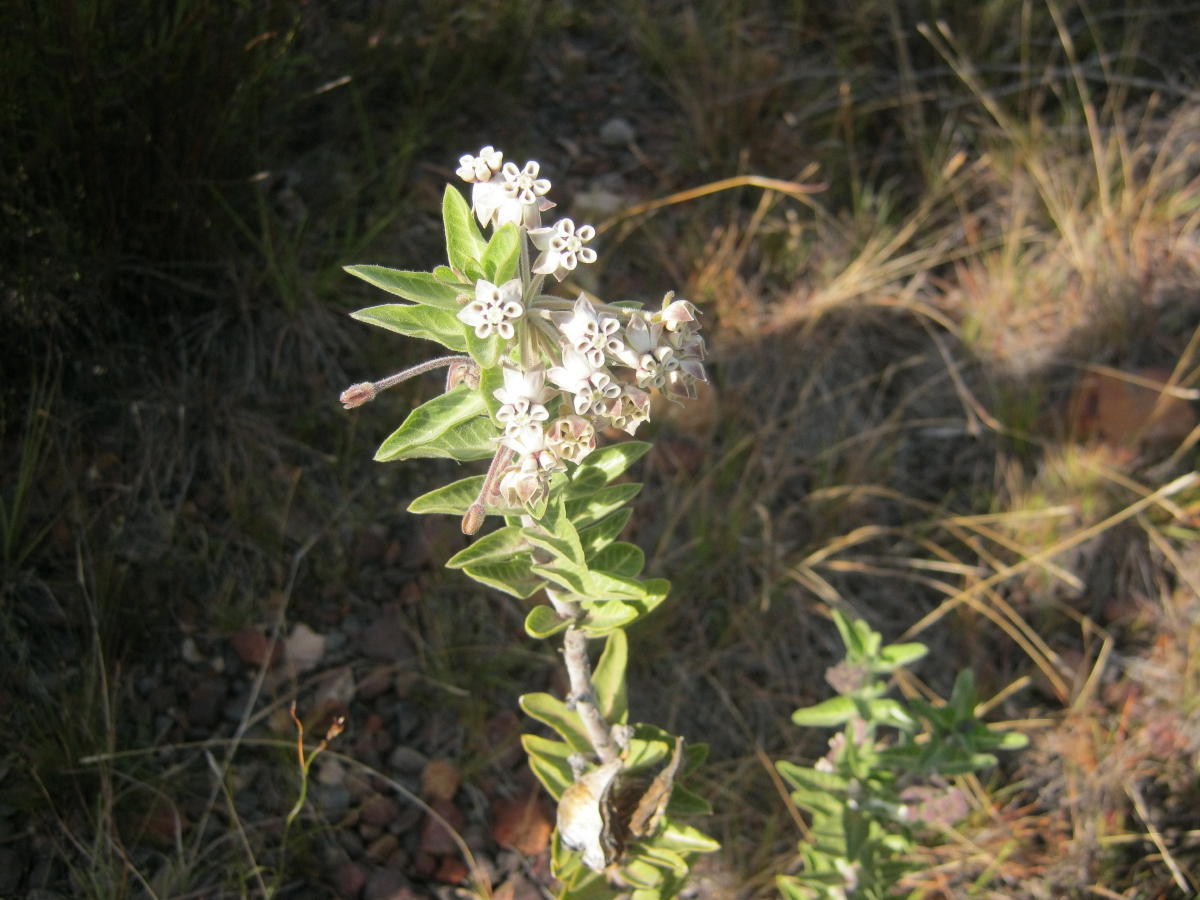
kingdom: Plantae
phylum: Tracheophyta
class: Magnoliopsida
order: Gentianales
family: Apocynaceae
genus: Gomphocarpus
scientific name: Gomphocarpus cancellatus
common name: Wild cotton
